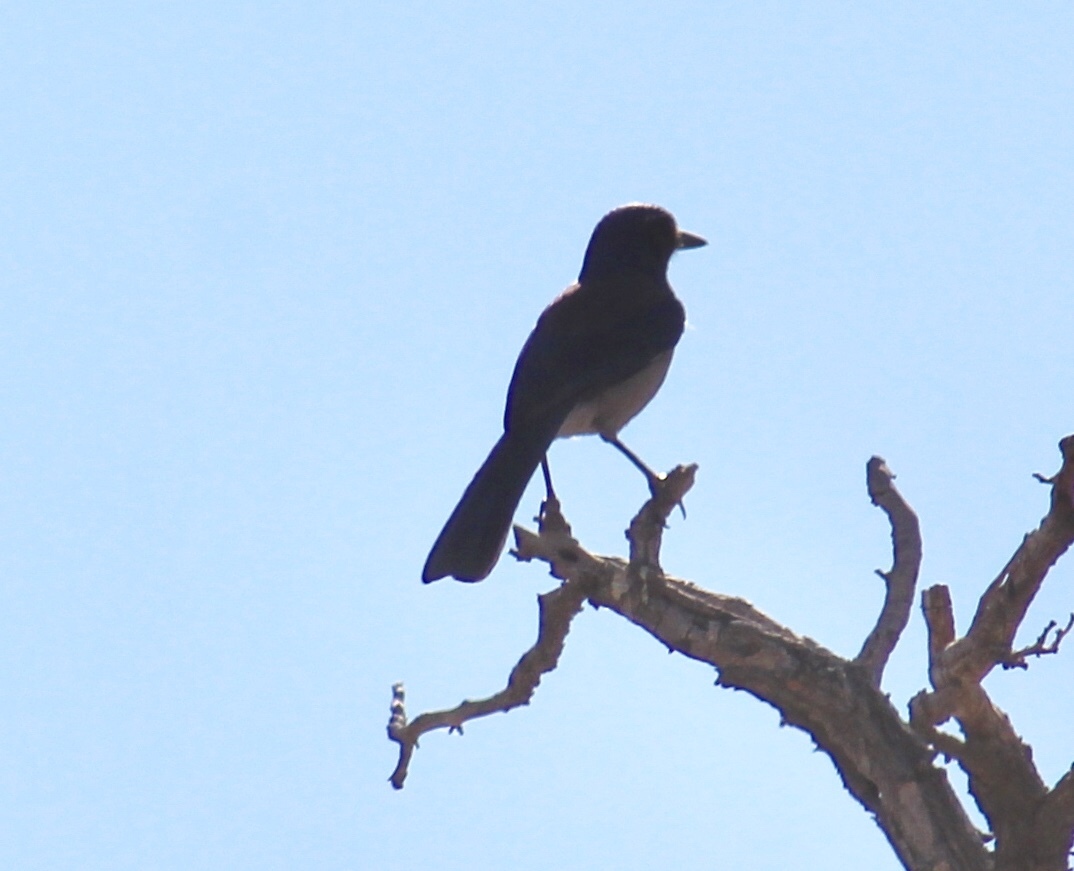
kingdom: Animalia
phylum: Chordata
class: Aves
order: Passeriformes
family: Corvidae
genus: Aphelocoma
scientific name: Aphelocoma californica
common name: California scrub-jay
